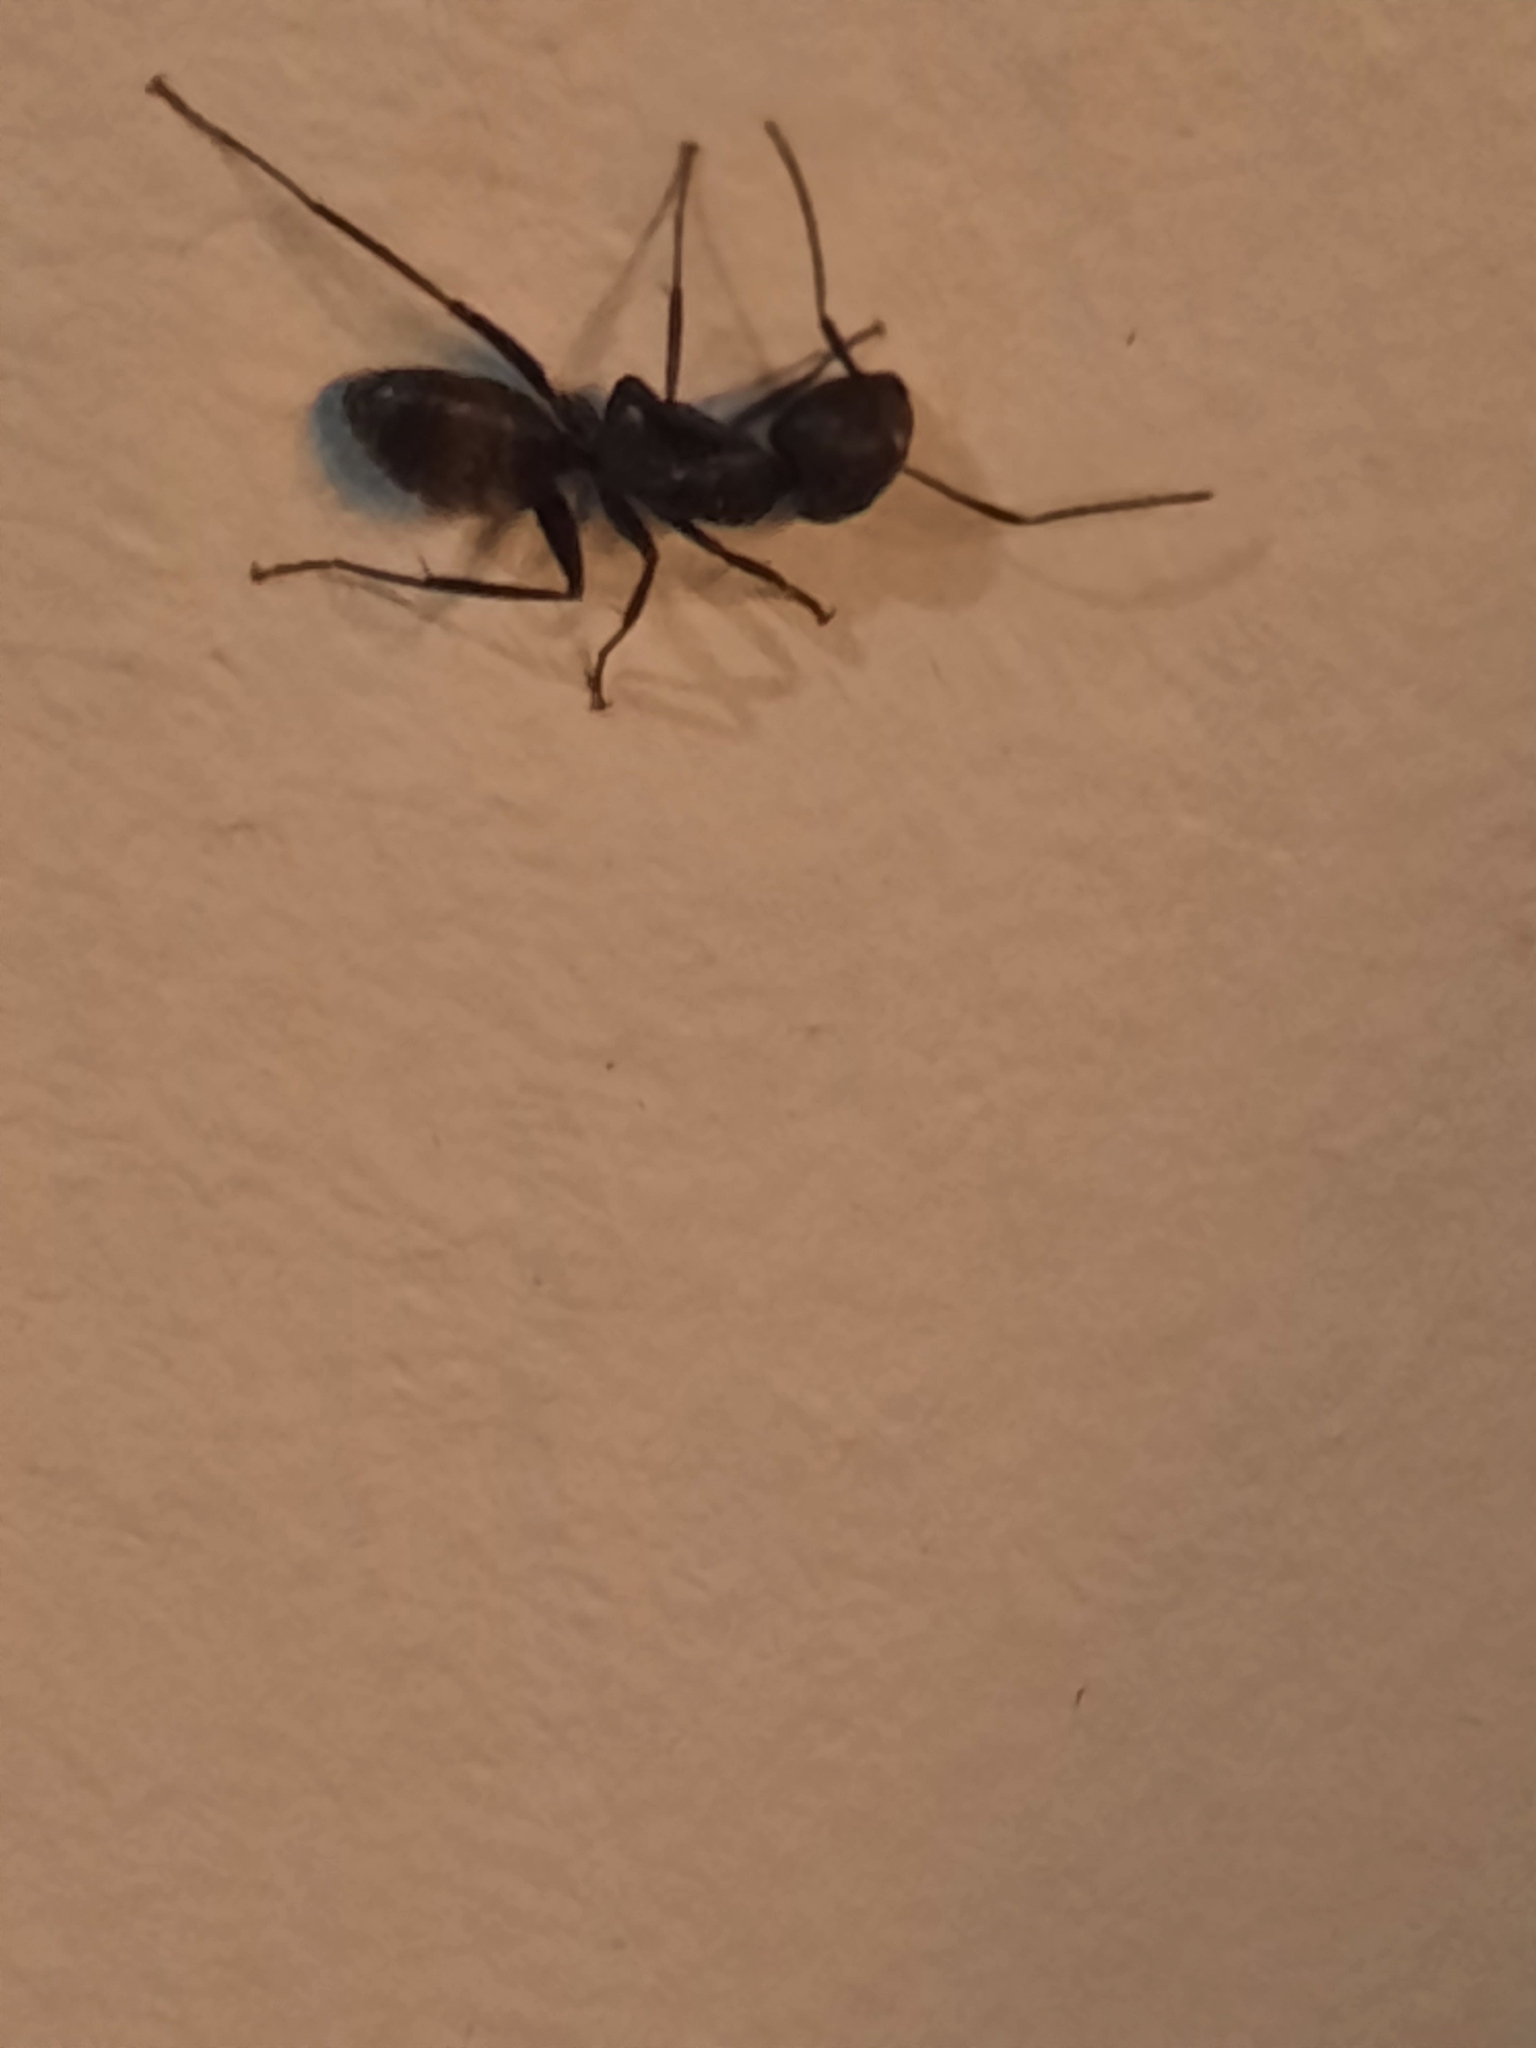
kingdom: Animalia
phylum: Arthropoda
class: Insecta
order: Hymenoptera
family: Formicidae
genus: Camponotus
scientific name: Camponotus pennsylvanicus
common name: Black carpenter ant
